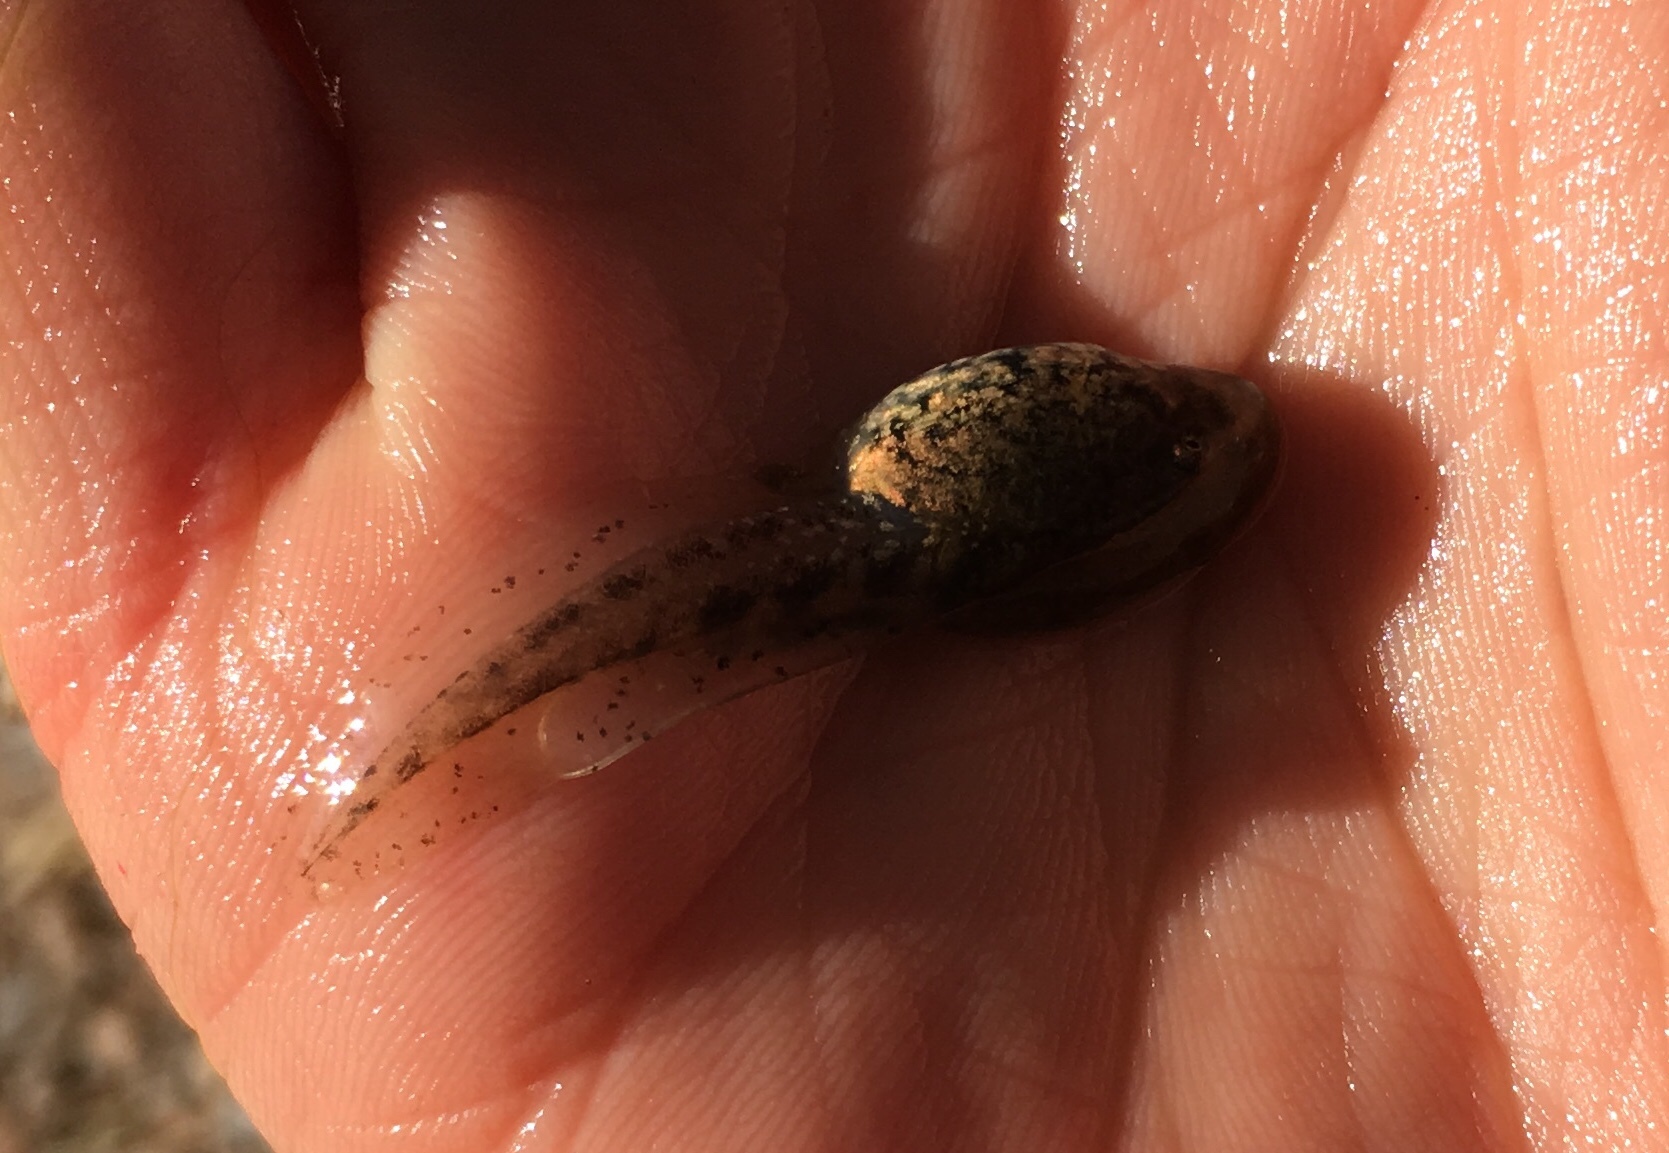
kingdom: Animalia
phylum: Chordata
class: Amphibia
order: Anura
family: Alytidae
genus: Alytes
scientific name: Alytes obstetricans
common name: Midwife toad
